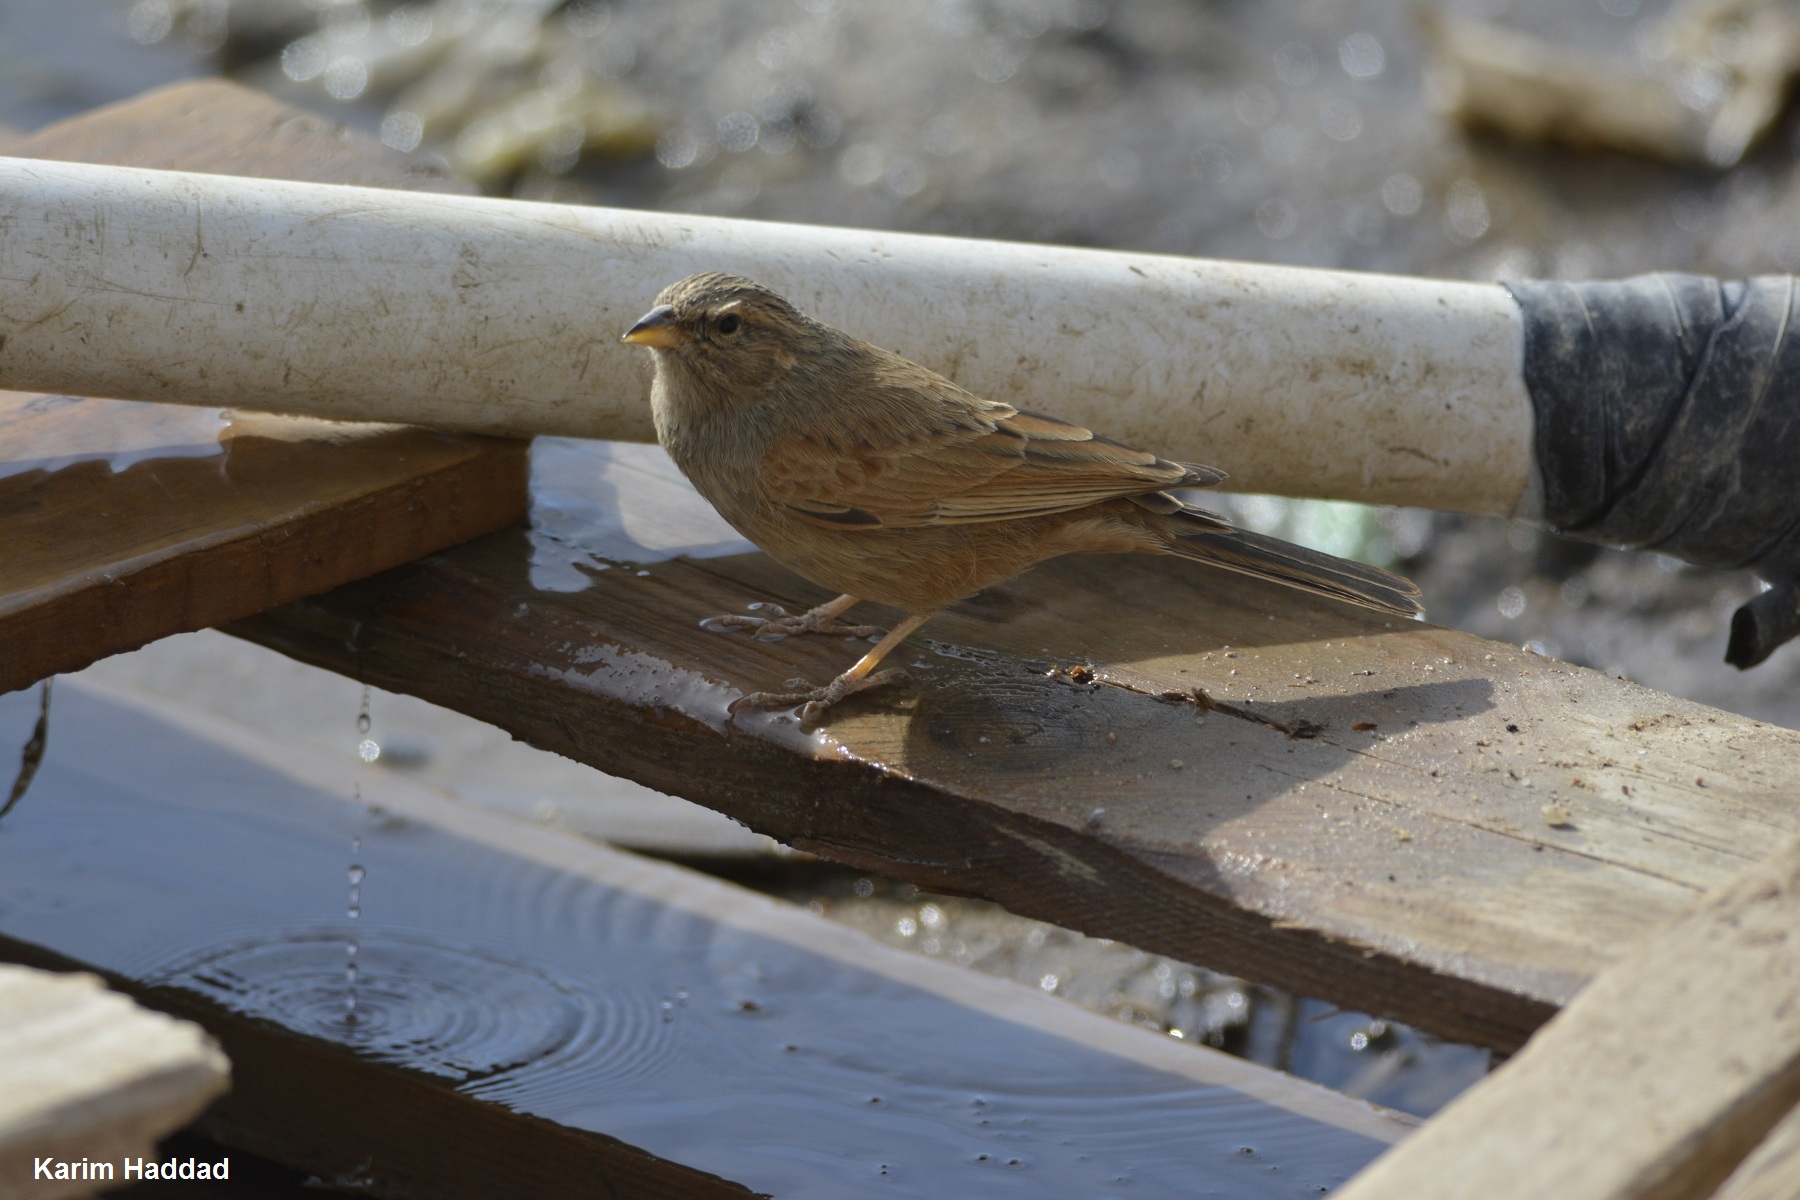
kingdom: Animalia
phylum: Chordata
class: Aves
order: Passeriformes
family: Emberizidae
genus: Emberiza
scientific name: Emberiza sahari
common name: House bunting
